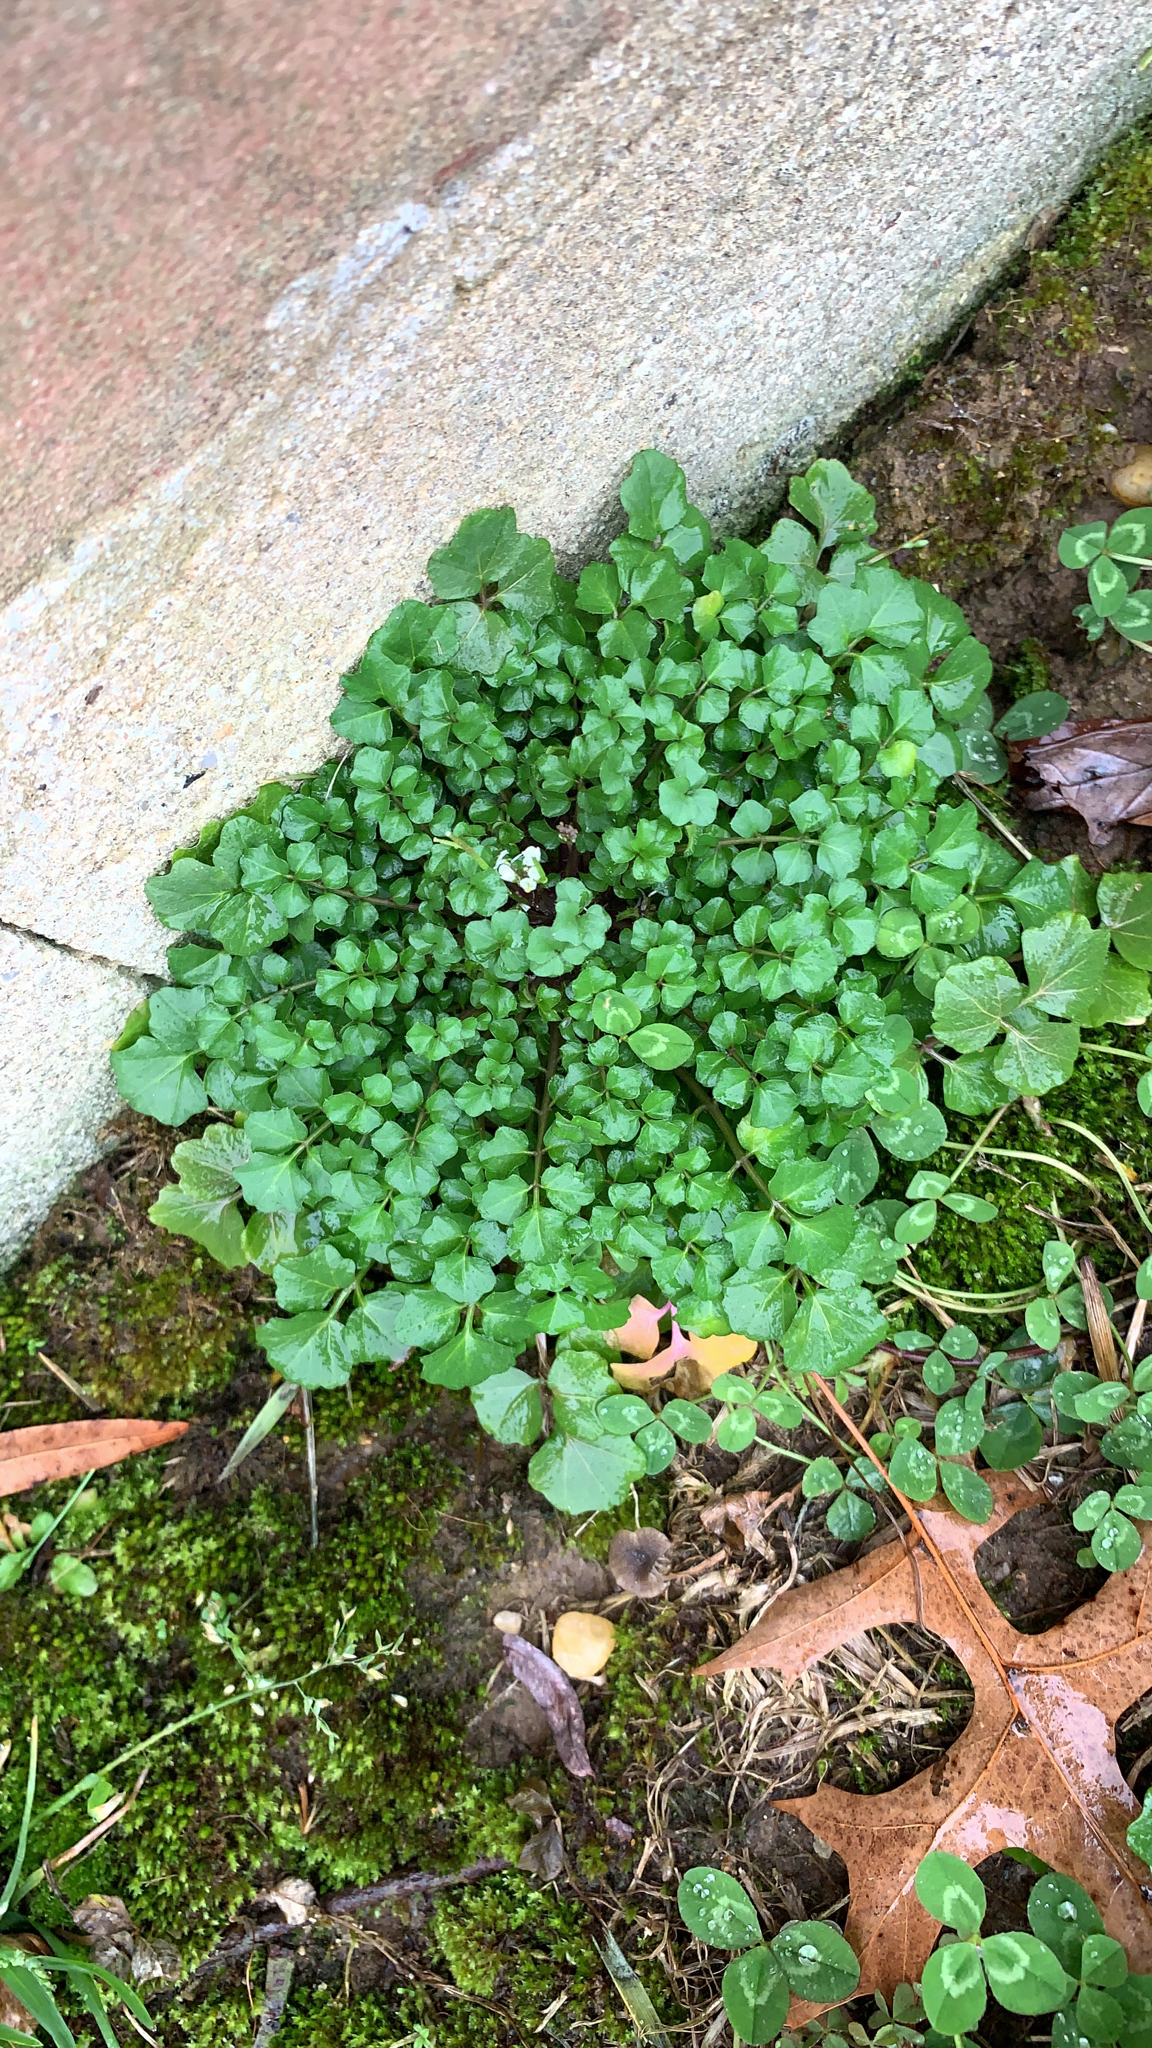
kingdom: Plantae
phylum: Tracheophyta
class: Magnoliopsida
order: Brassicales
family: Brassicaceae
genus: Cardamine
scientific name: Cardamine hirsuta
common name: Hairy bittercress
